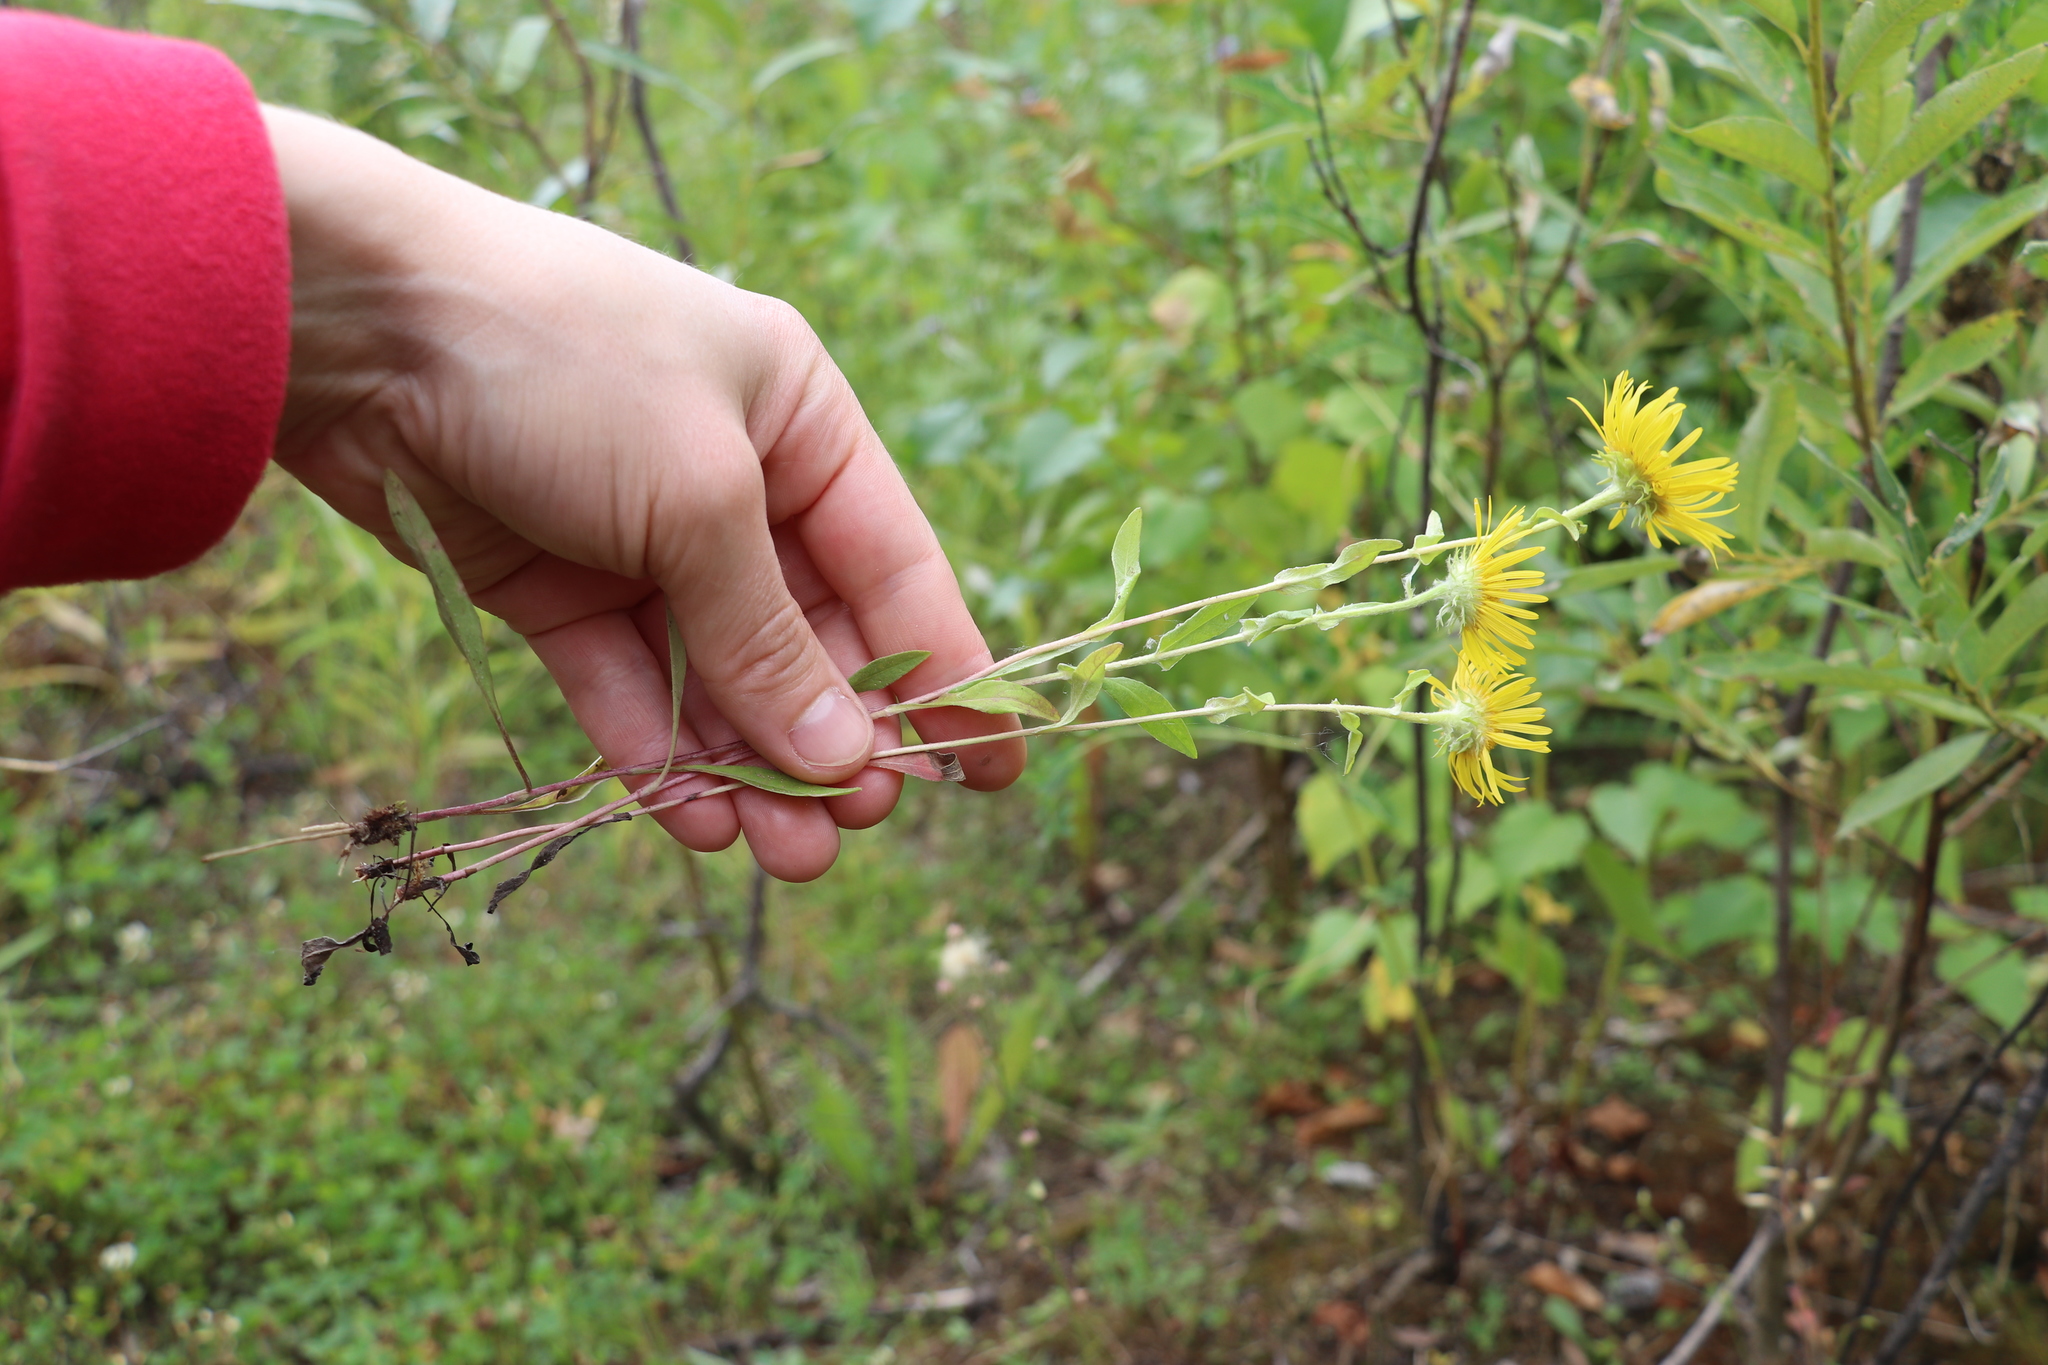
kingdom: Plantae
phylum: Tracheophyta
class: Magnoliopsida
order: Asterales
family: Asteraceae
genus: Pentanema
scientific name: Pentanema britannicum
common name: British elecampane
